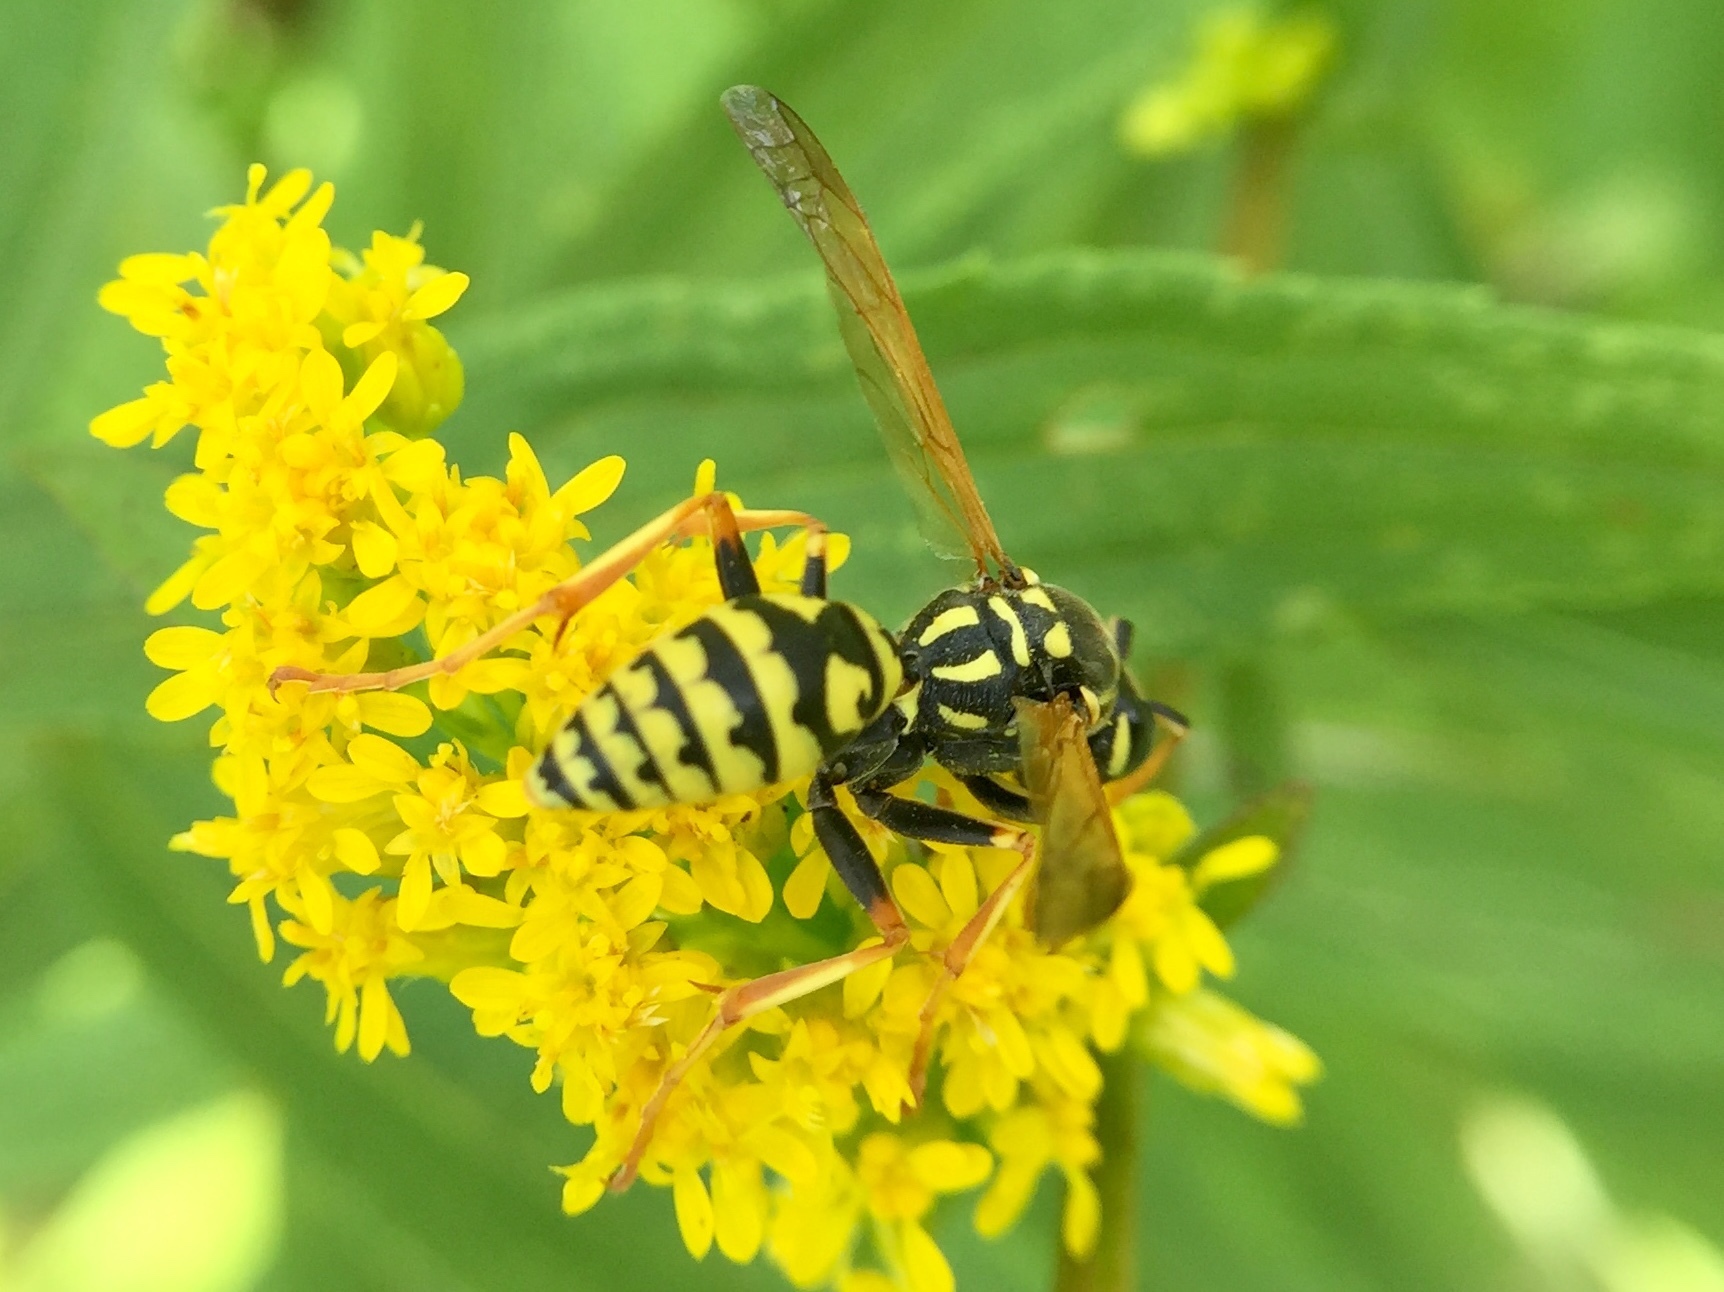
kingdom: Animalia
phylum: Arthropoda
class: Insecta
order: Hymenoptera
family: Eumenidae
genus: Polistes
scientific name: Polistes dominula
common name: Paper wasp
